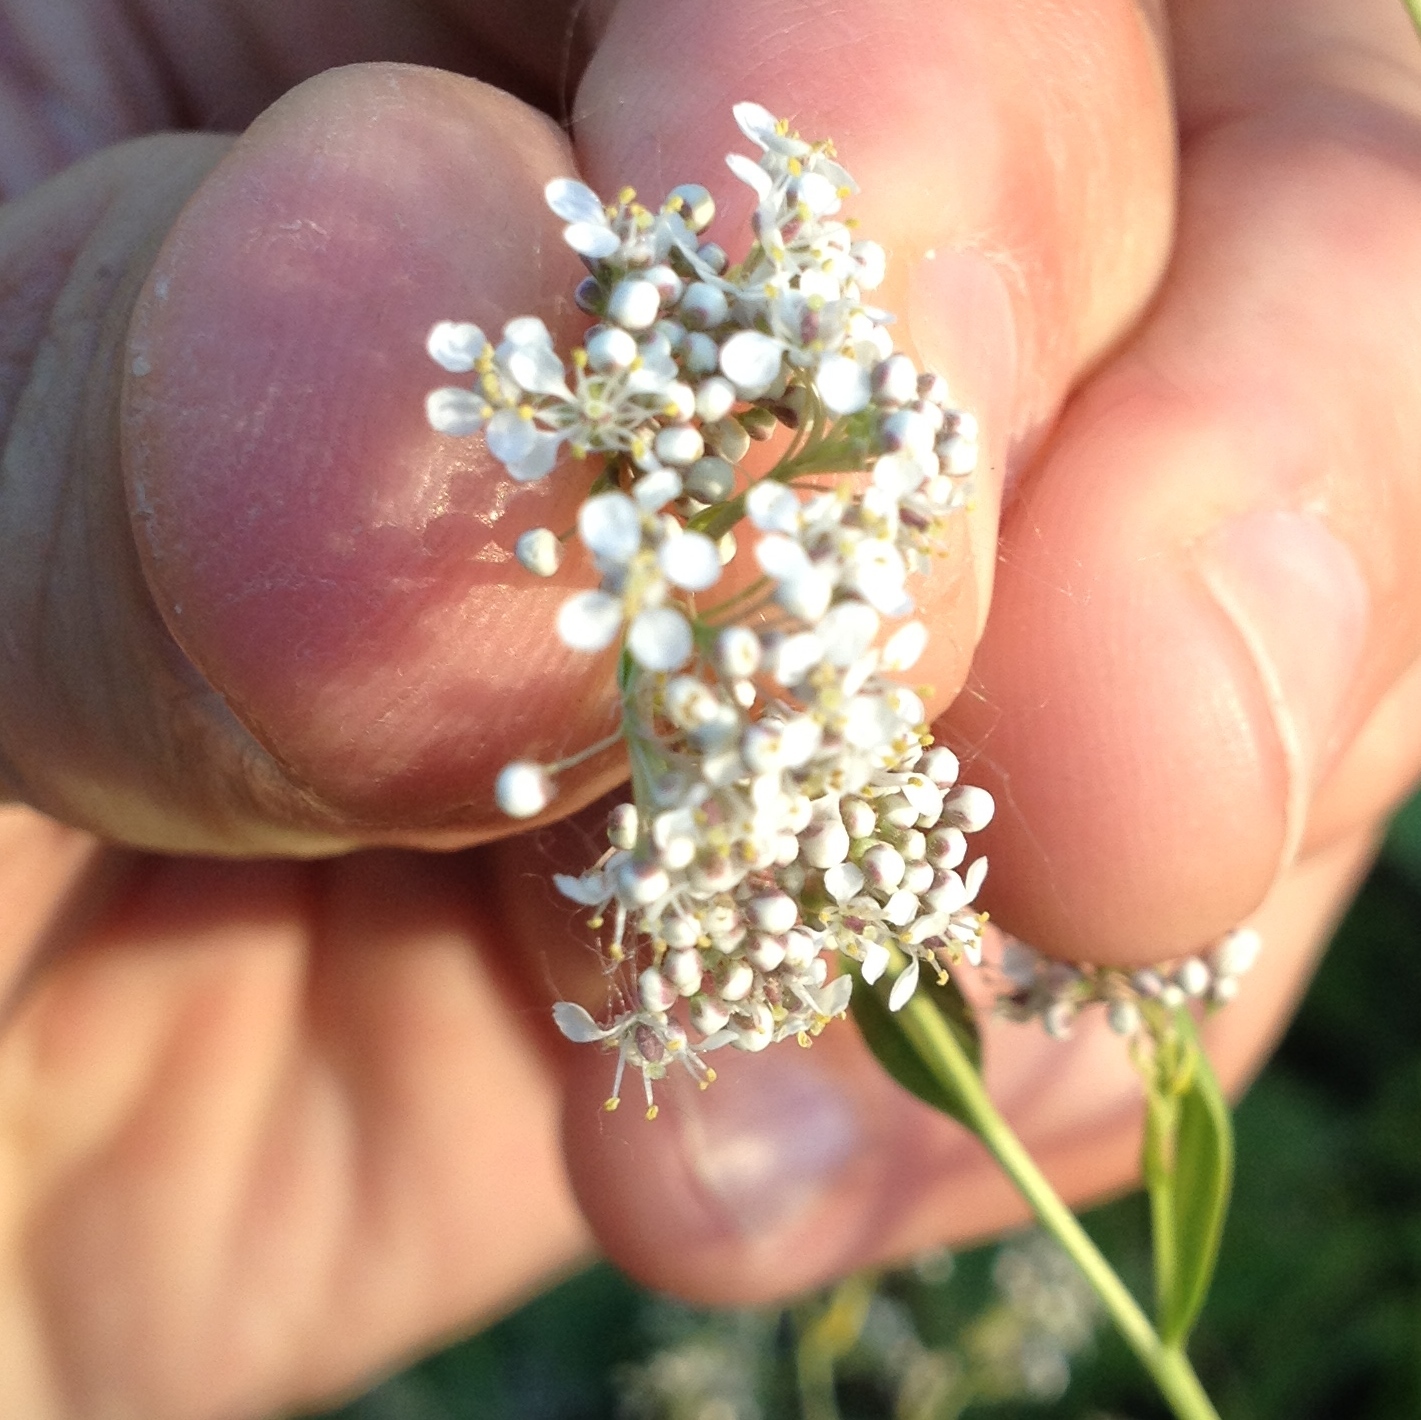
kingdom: Plantae
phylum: Tracheophyta
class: Magnoliopsida
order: Brassicales
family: Brassicaceae
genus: Lepidium
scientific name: Lepidium latifolium
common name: Dittander
